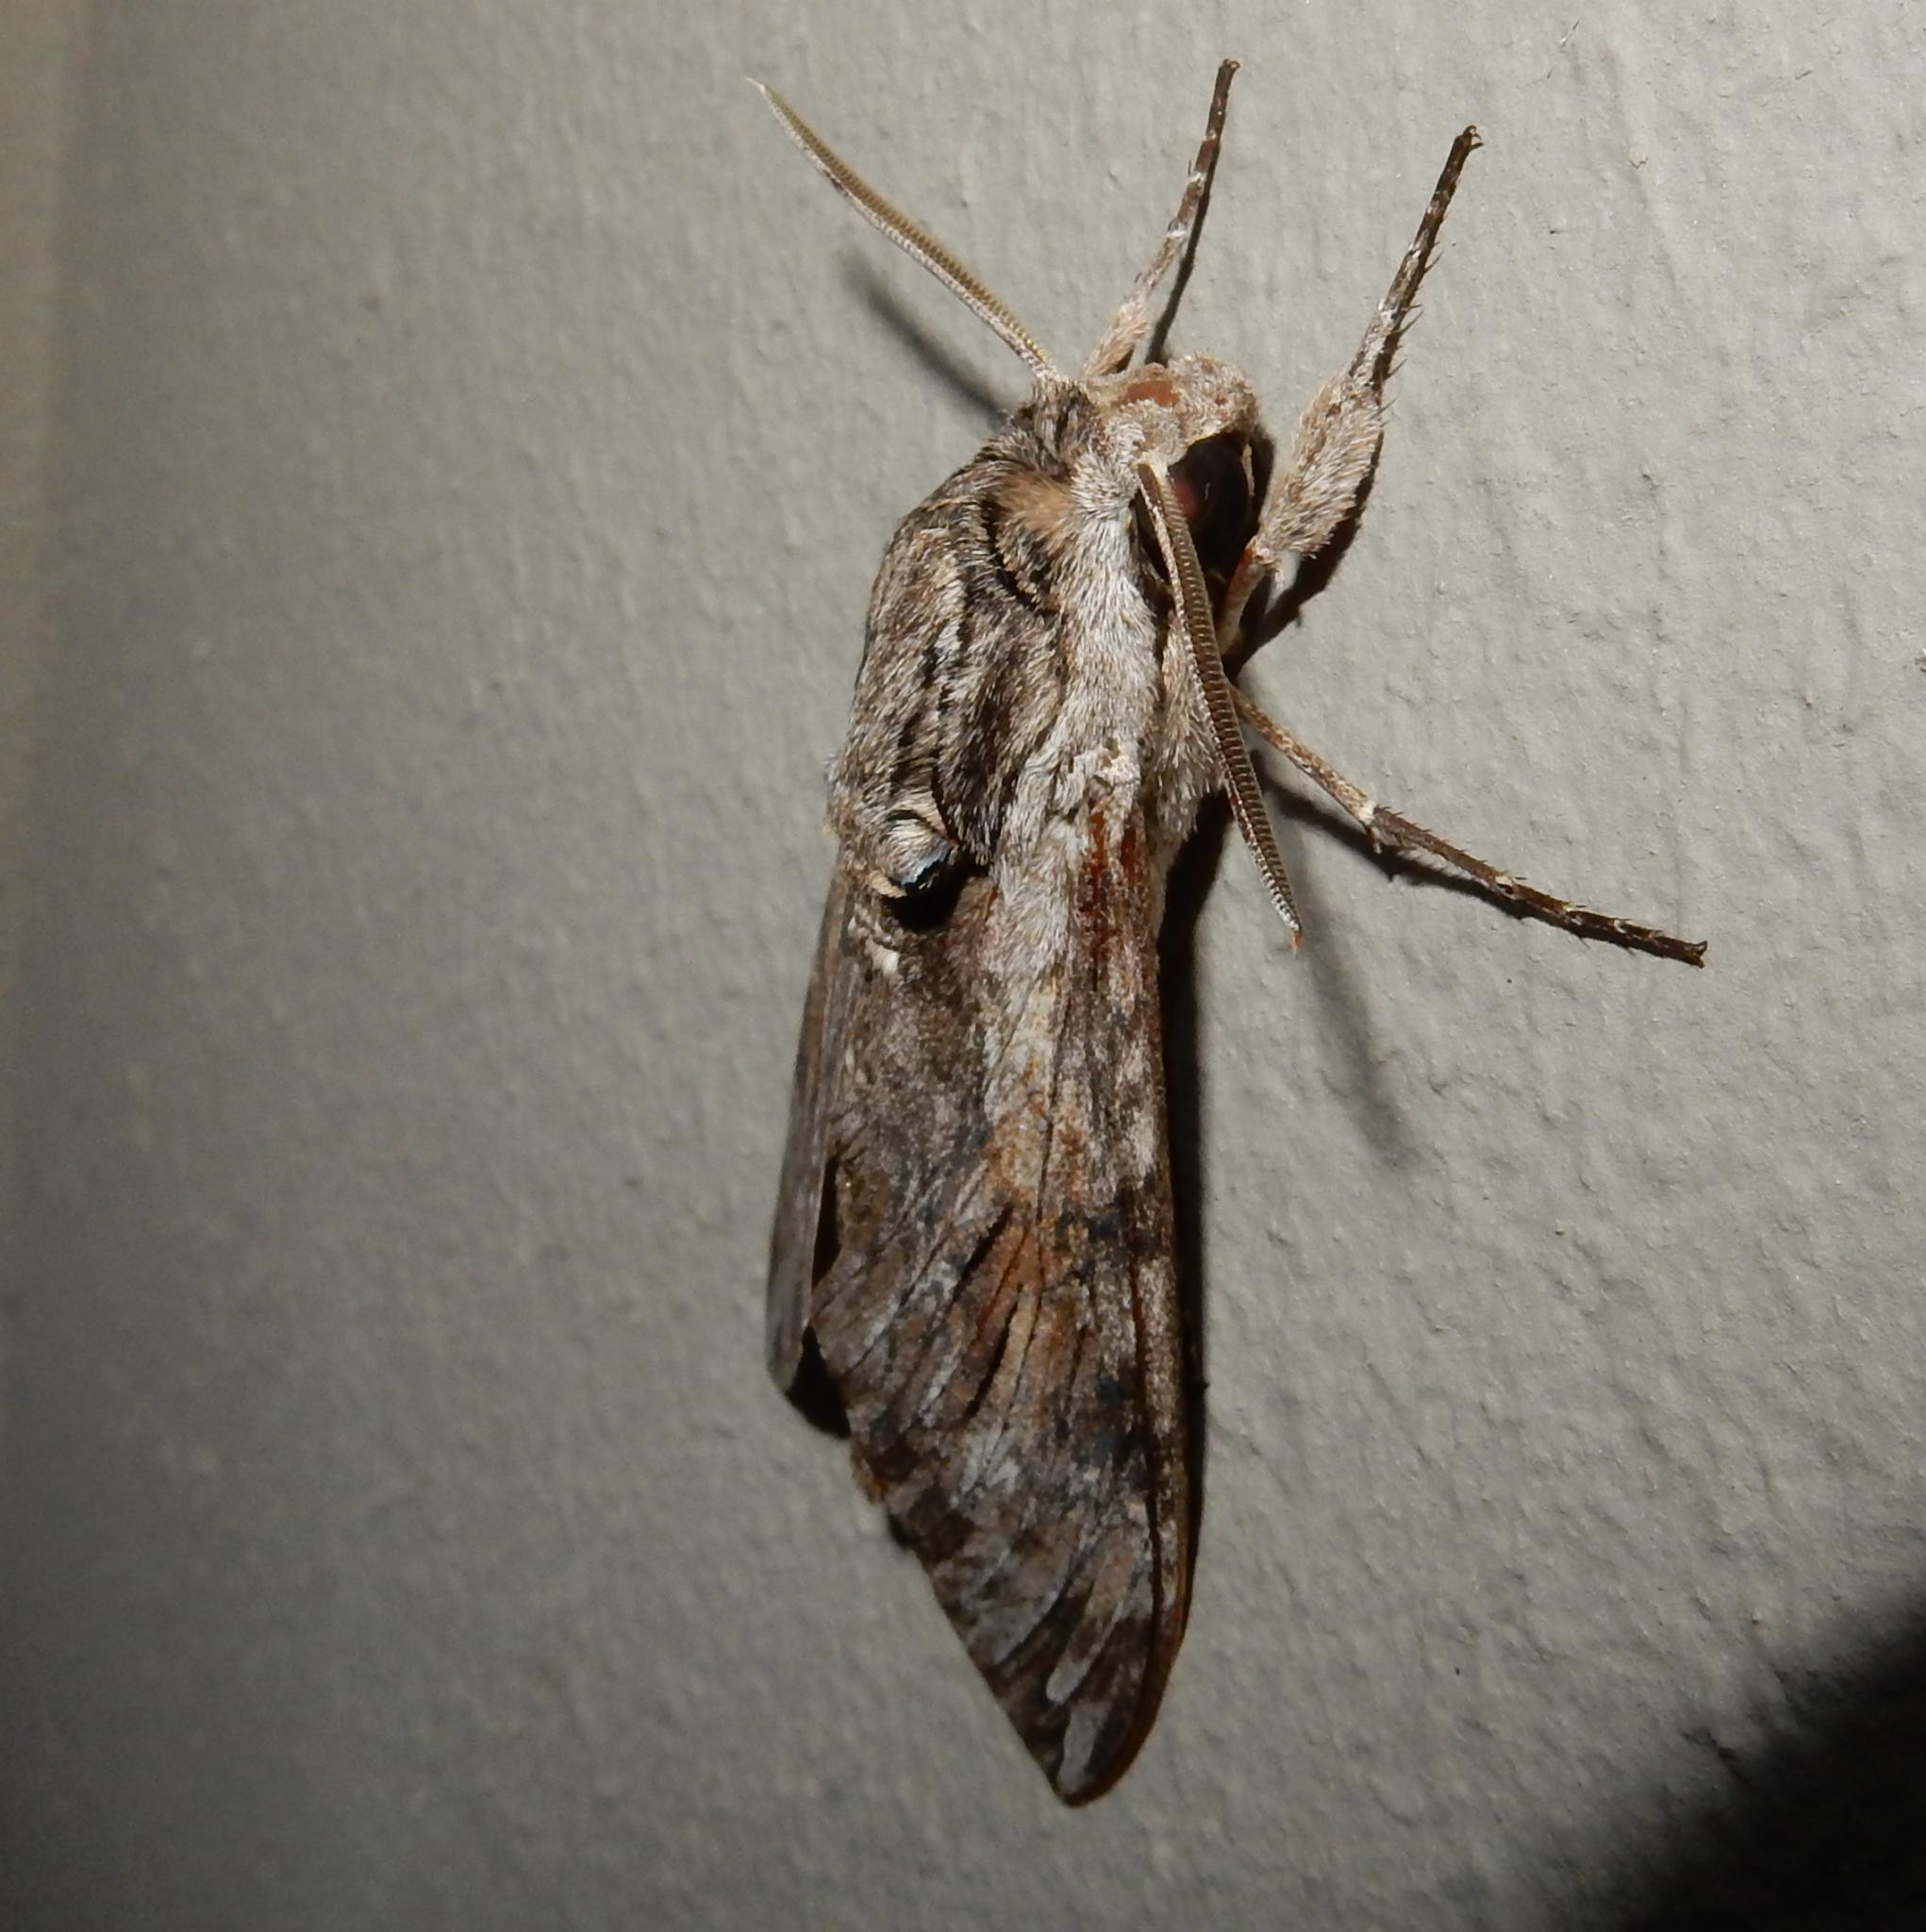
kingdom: Animalia
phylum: Arthropoda
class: Insecta
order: Lepidoptera
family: Sphingidae
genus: Agrius
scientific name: Agrius convolvuli
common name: Convolvulus hawkmoth
